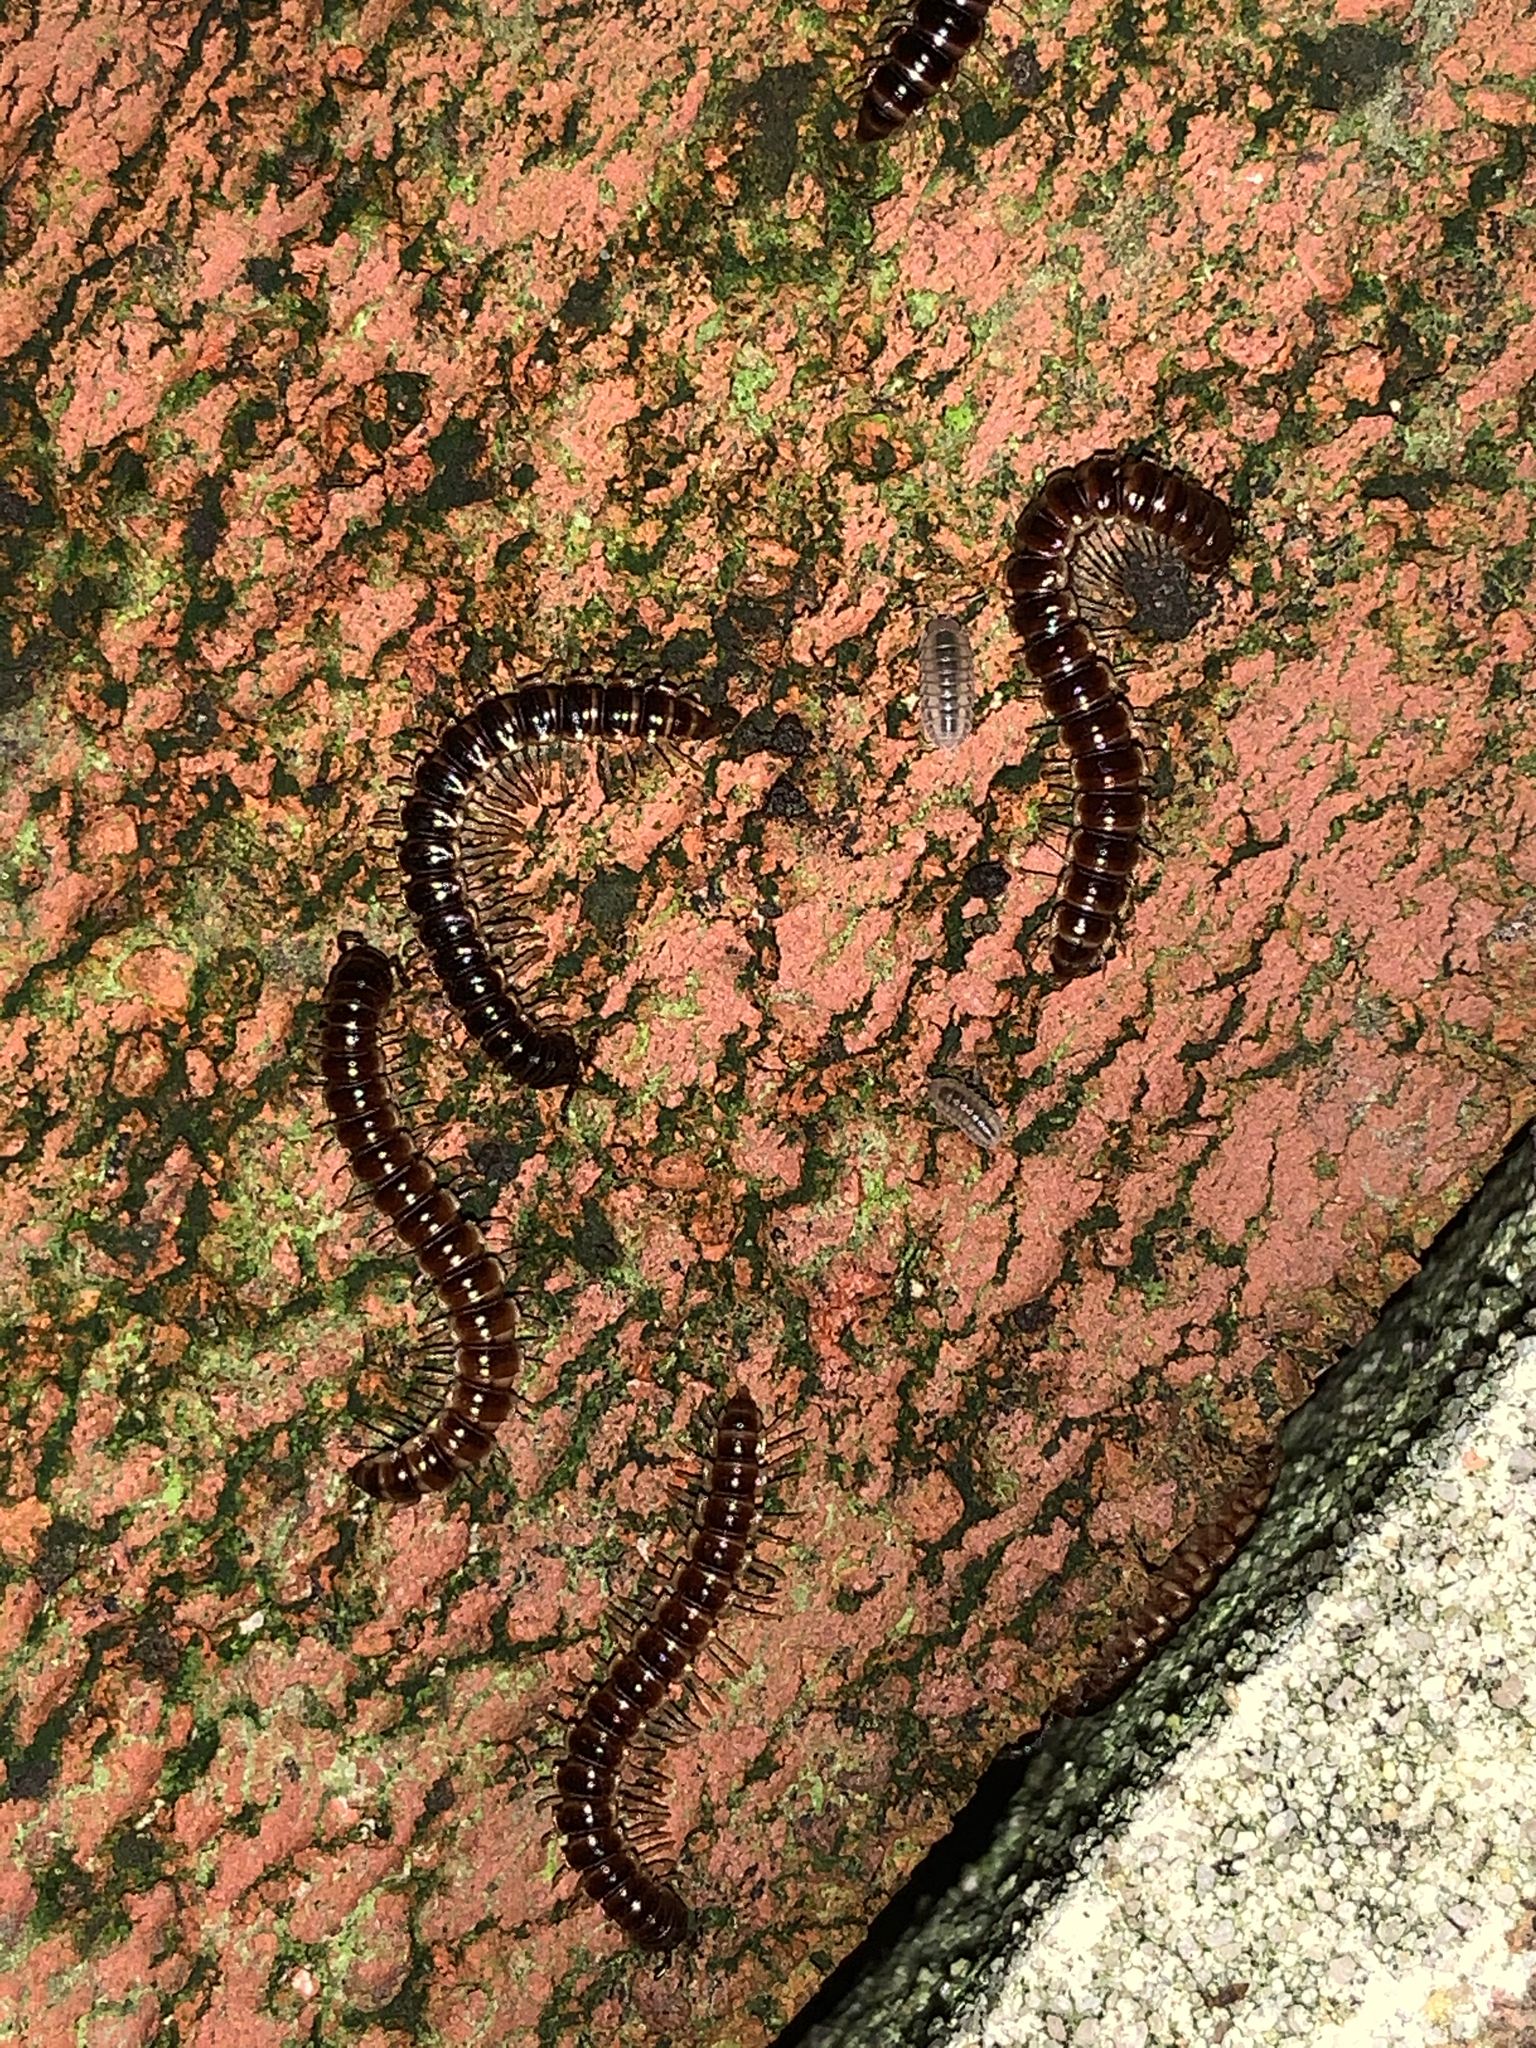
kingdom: Animalia
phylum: Arthropoda
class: Diplopoda
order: Polydesmida
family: Paradoxosomatidae
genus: Oxidus
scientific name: Oxidus gracilis
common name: Greenhouse millipede
